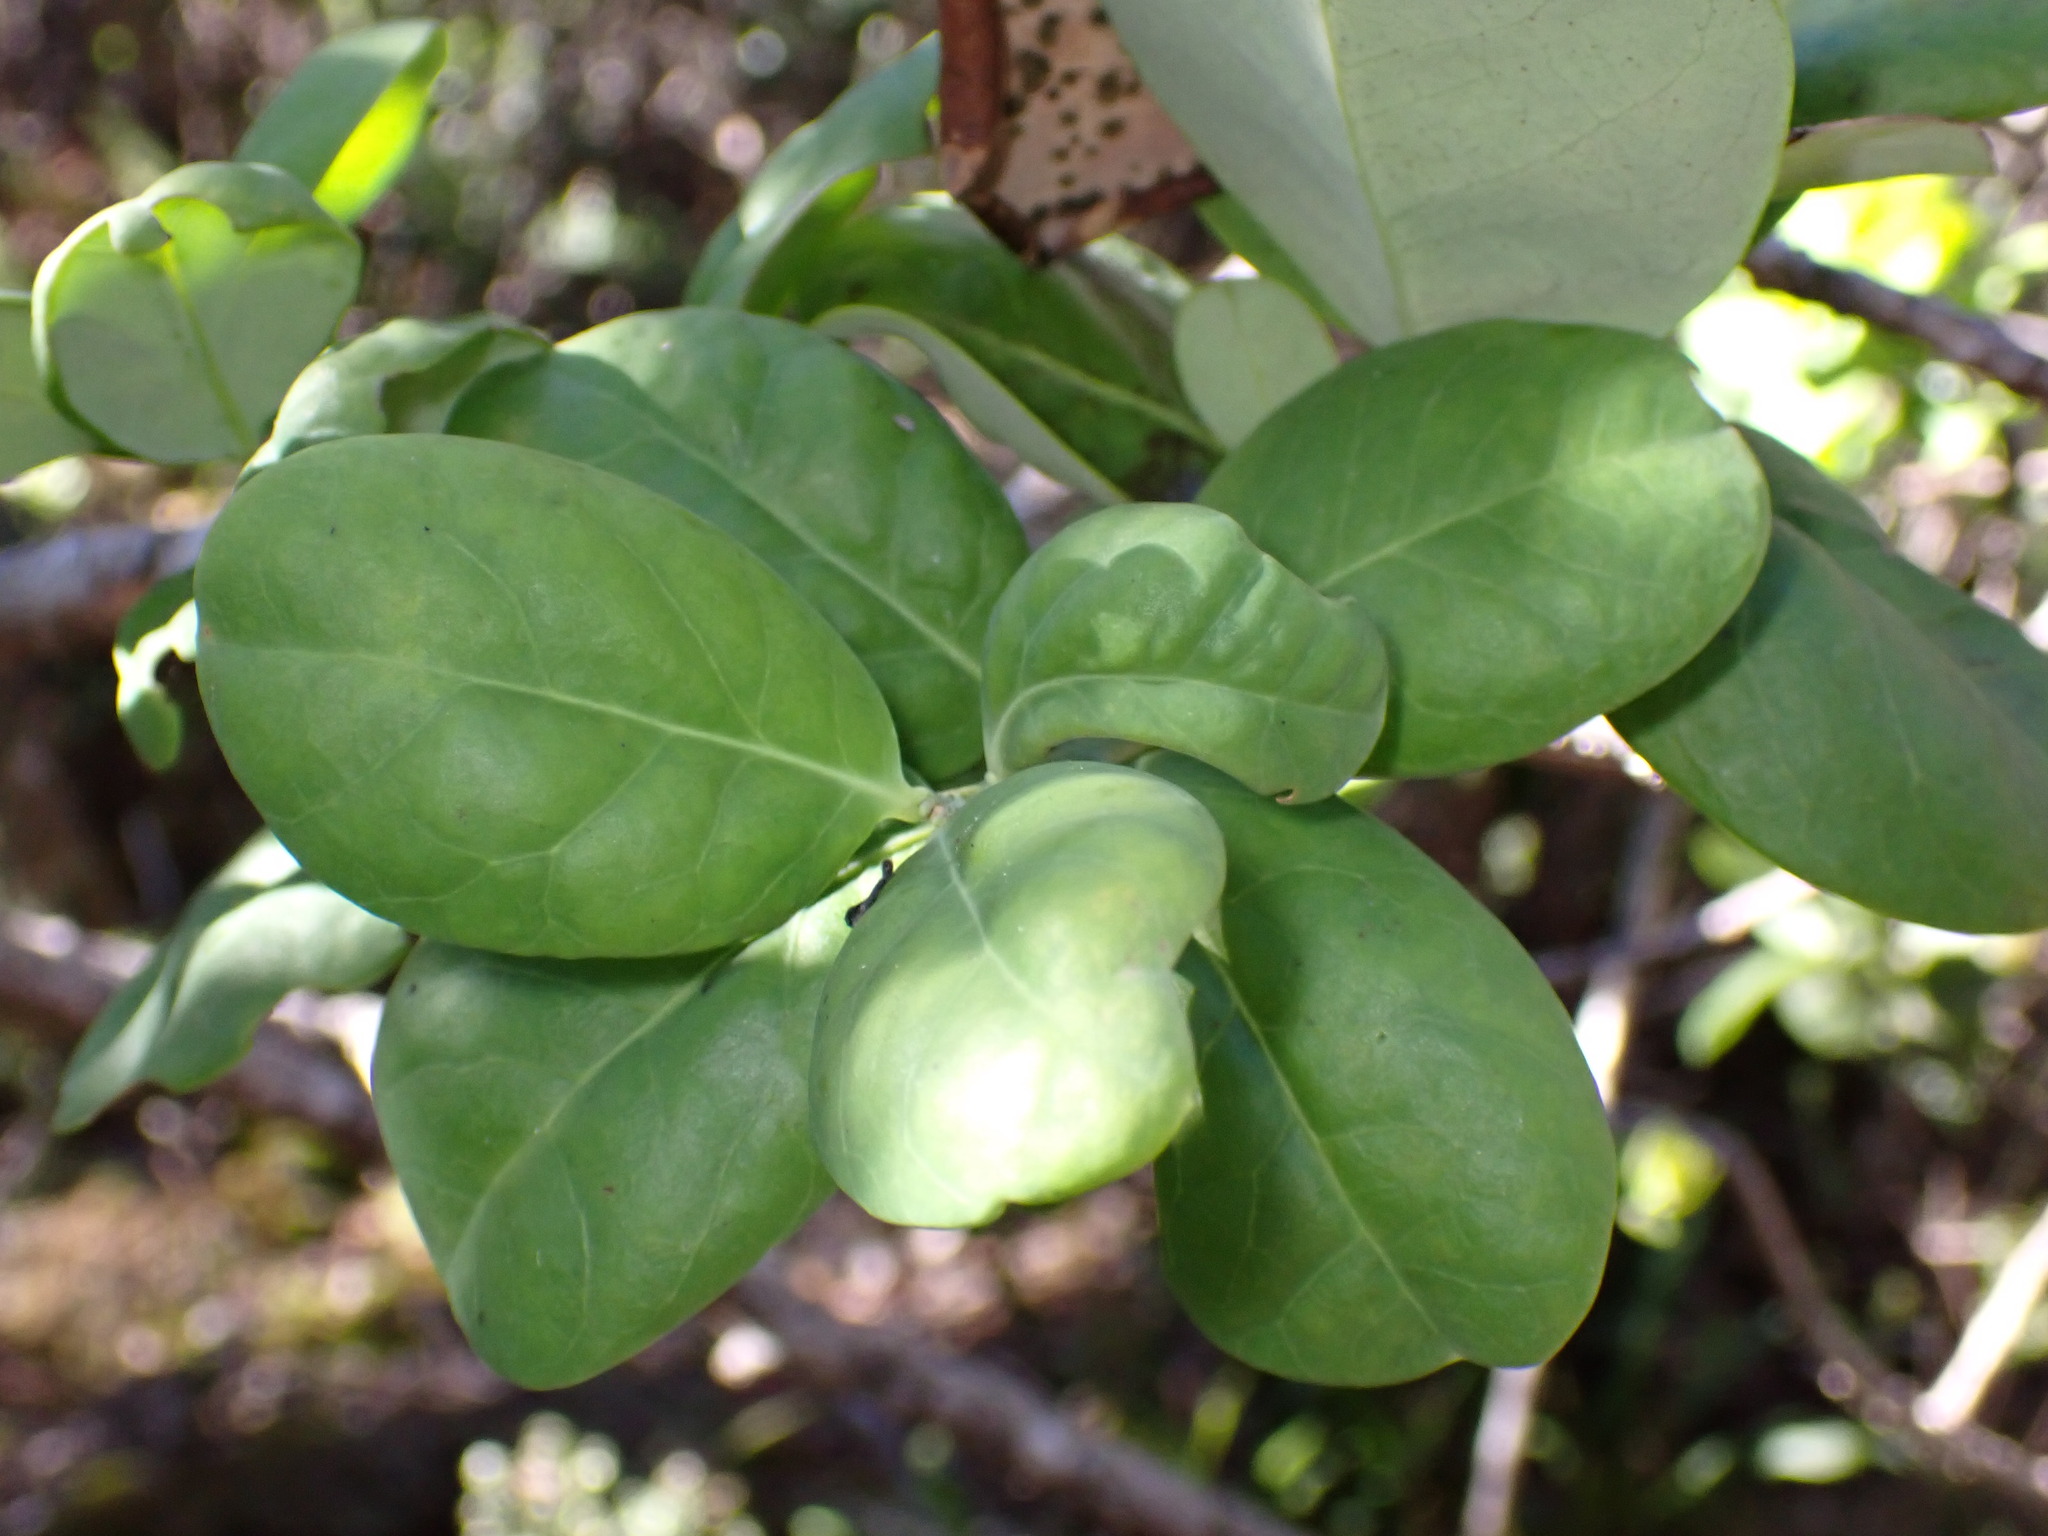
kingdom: Plantae
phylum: Tracheophyta
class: Magnoliopsida
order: Santalales
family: Santalaceae
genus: Santalum
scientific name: Santalum paniculatum
